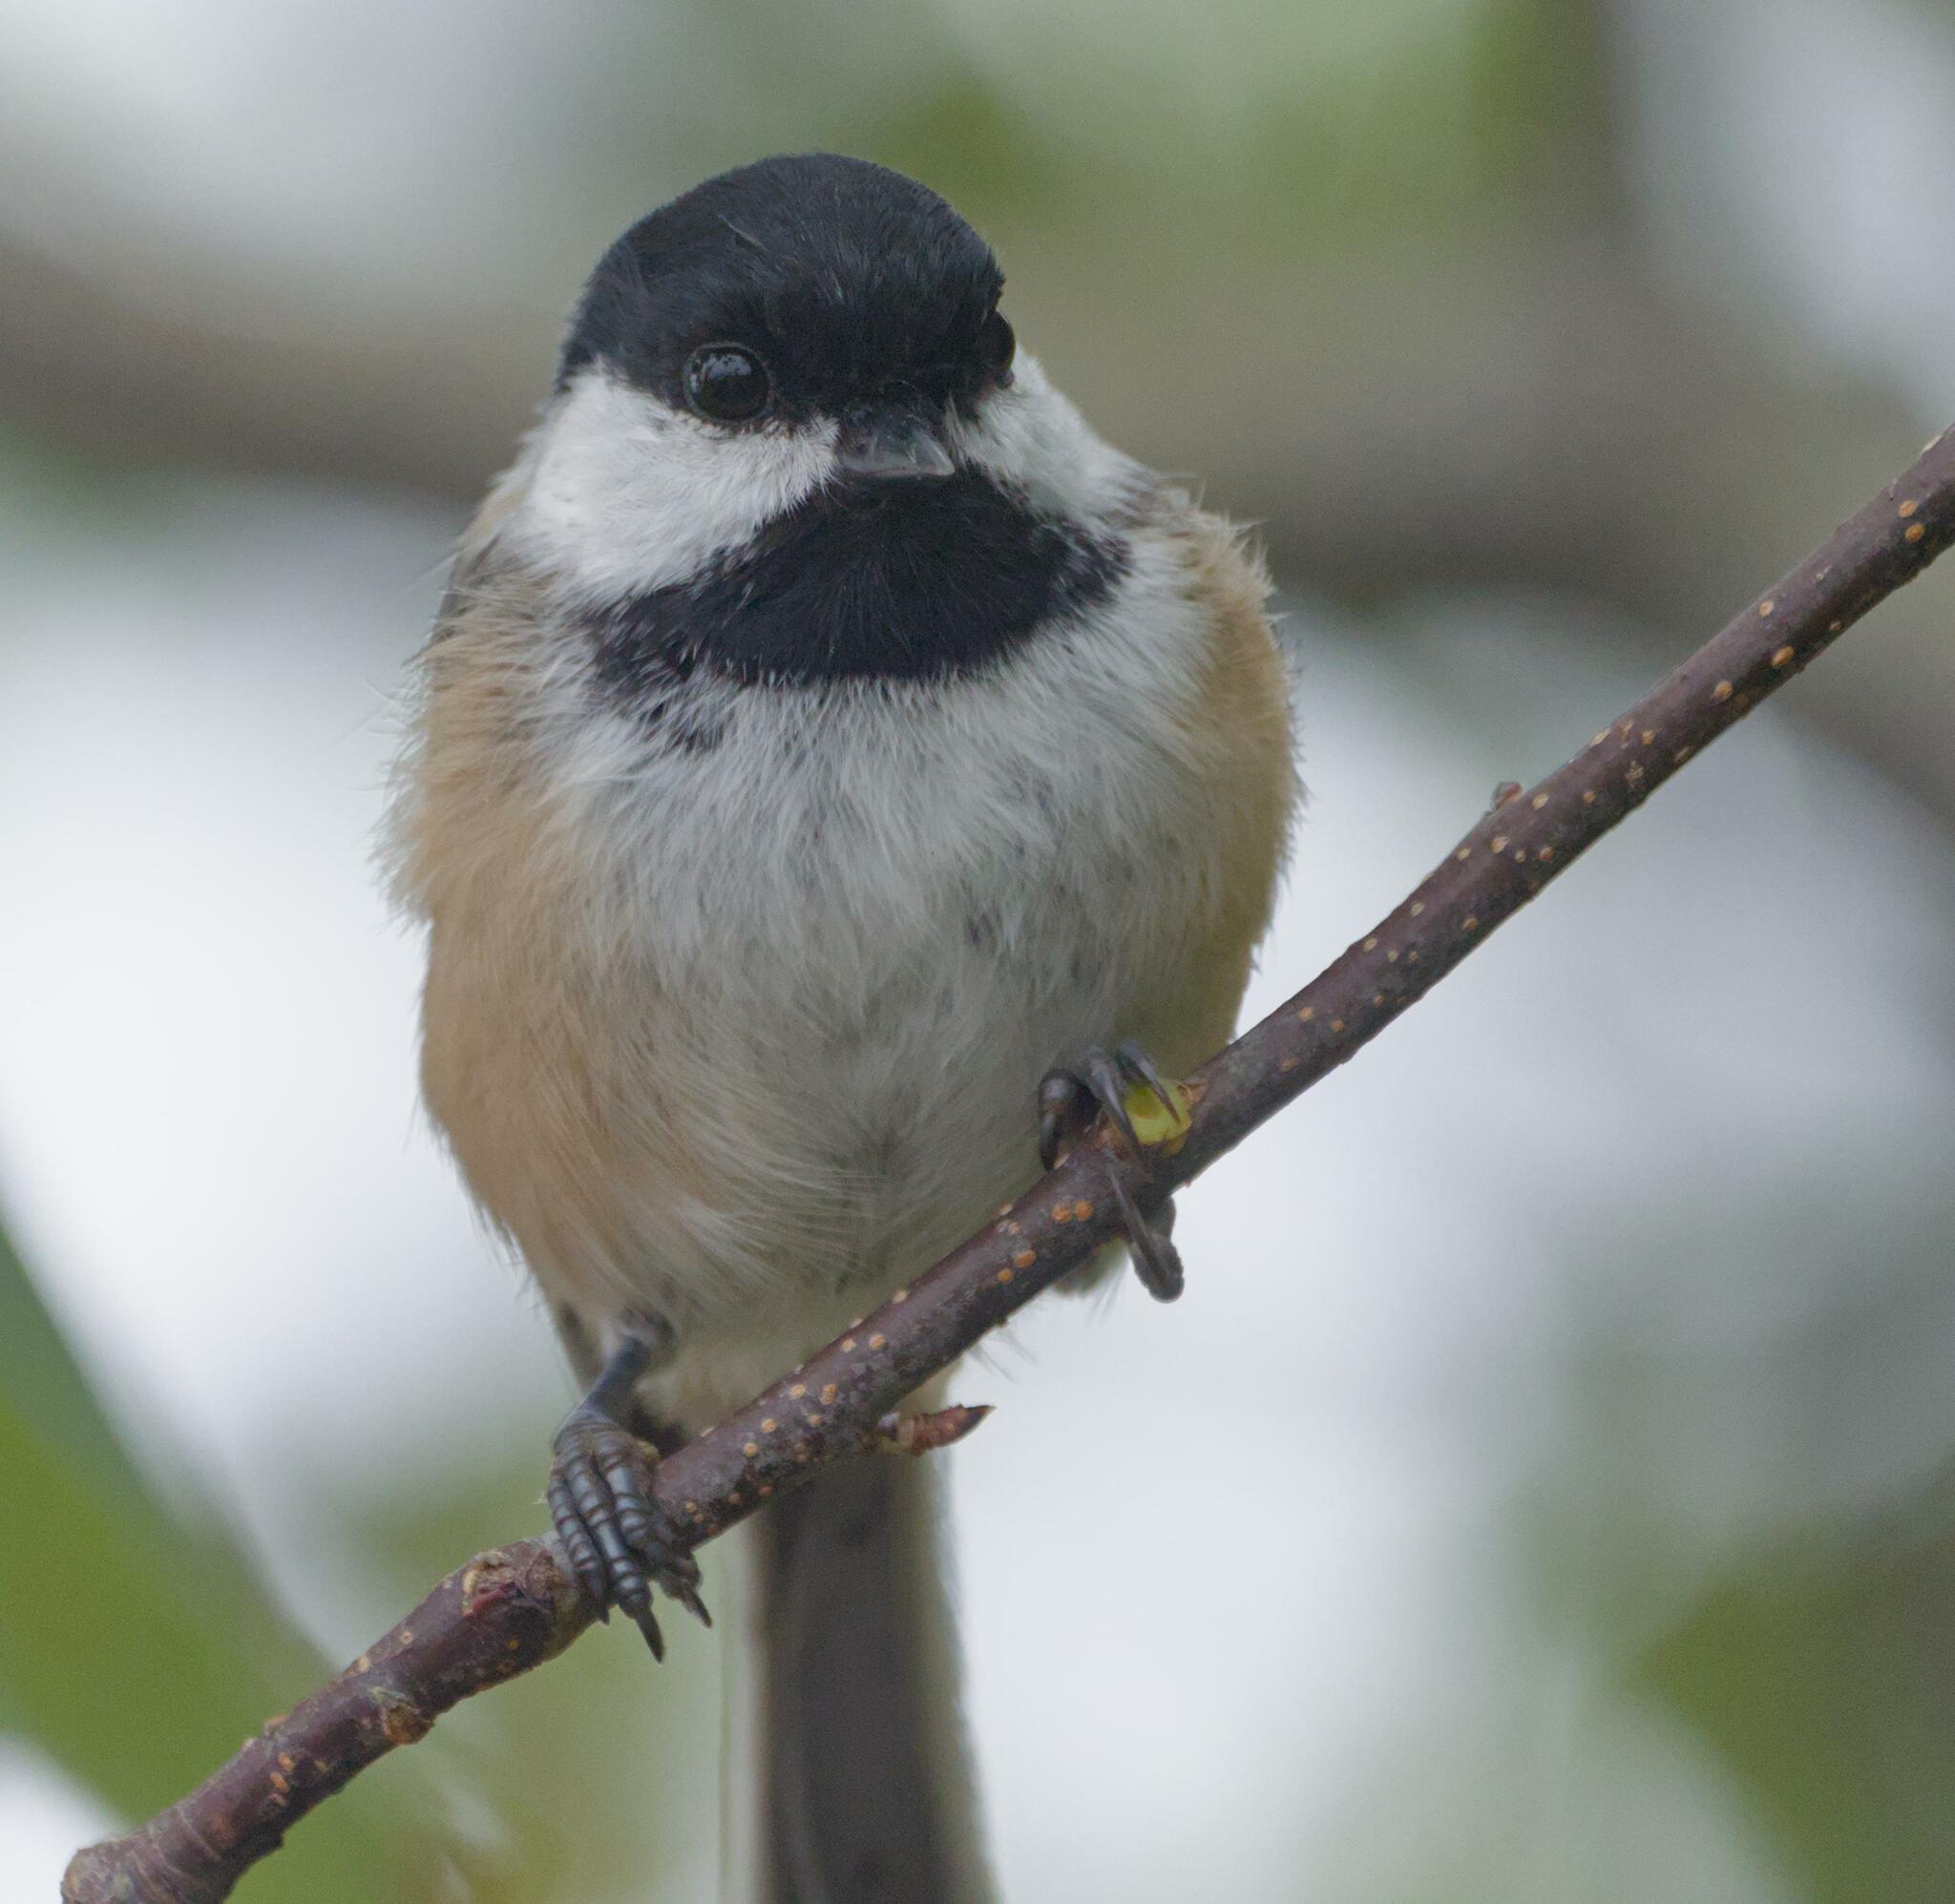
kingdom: Animalia
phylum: Chordata
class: Aves
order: Passeriformes
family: Paridae
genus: Poecile
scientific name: Poecile atricapillus
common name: Black-capped chickadee
